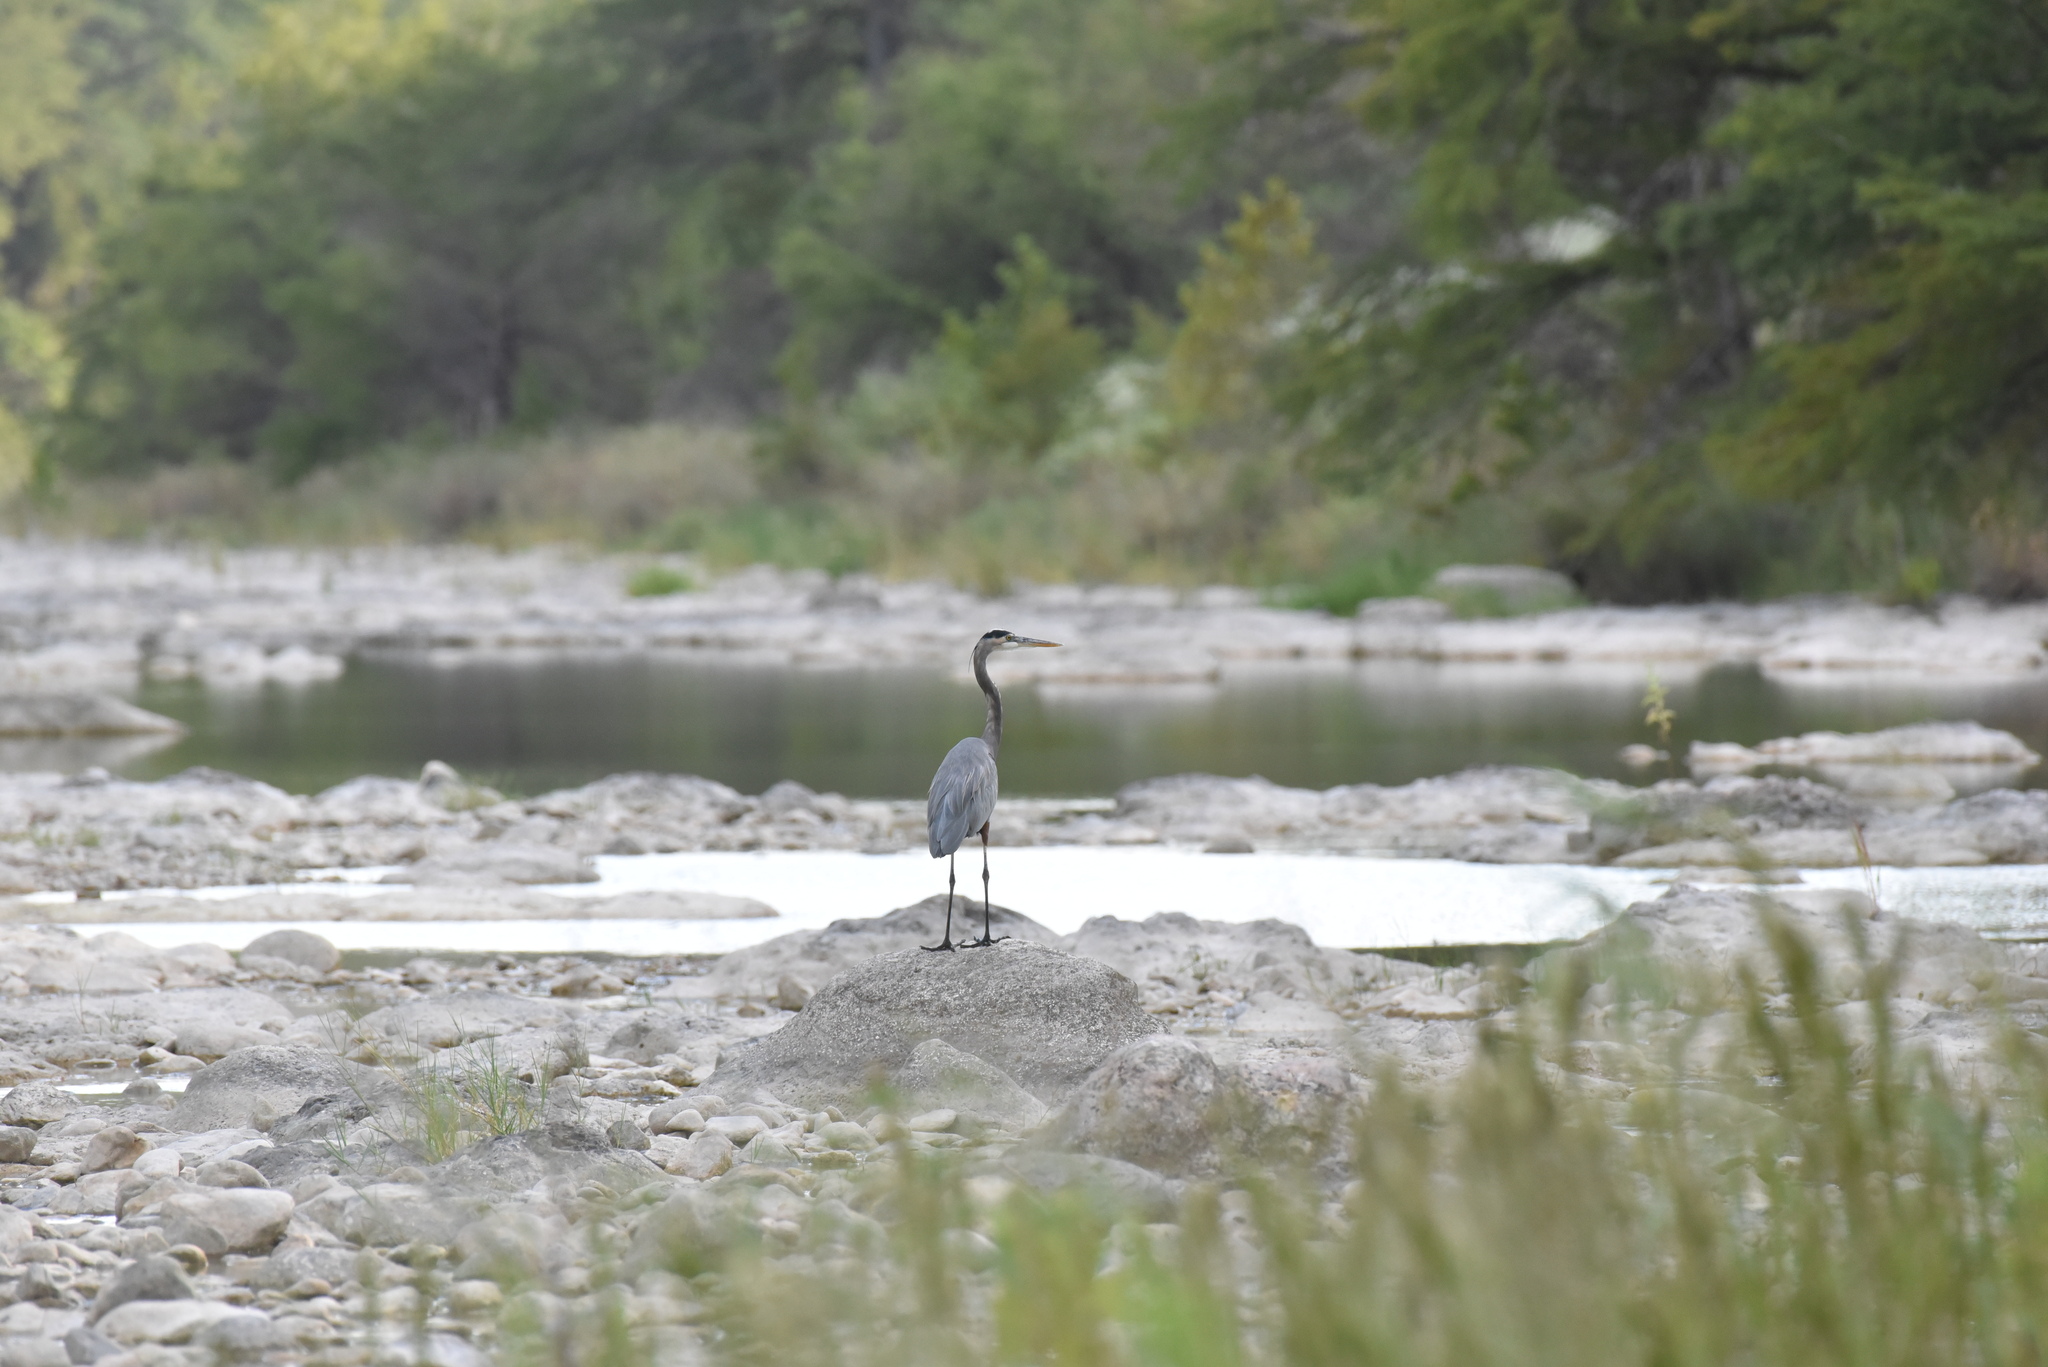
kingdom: Animalia
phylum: Chordata
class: Aves
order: Pelecaniformes
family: Ardeidae
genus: Ardea
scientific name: Ardea herodias
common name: Great blue heron
